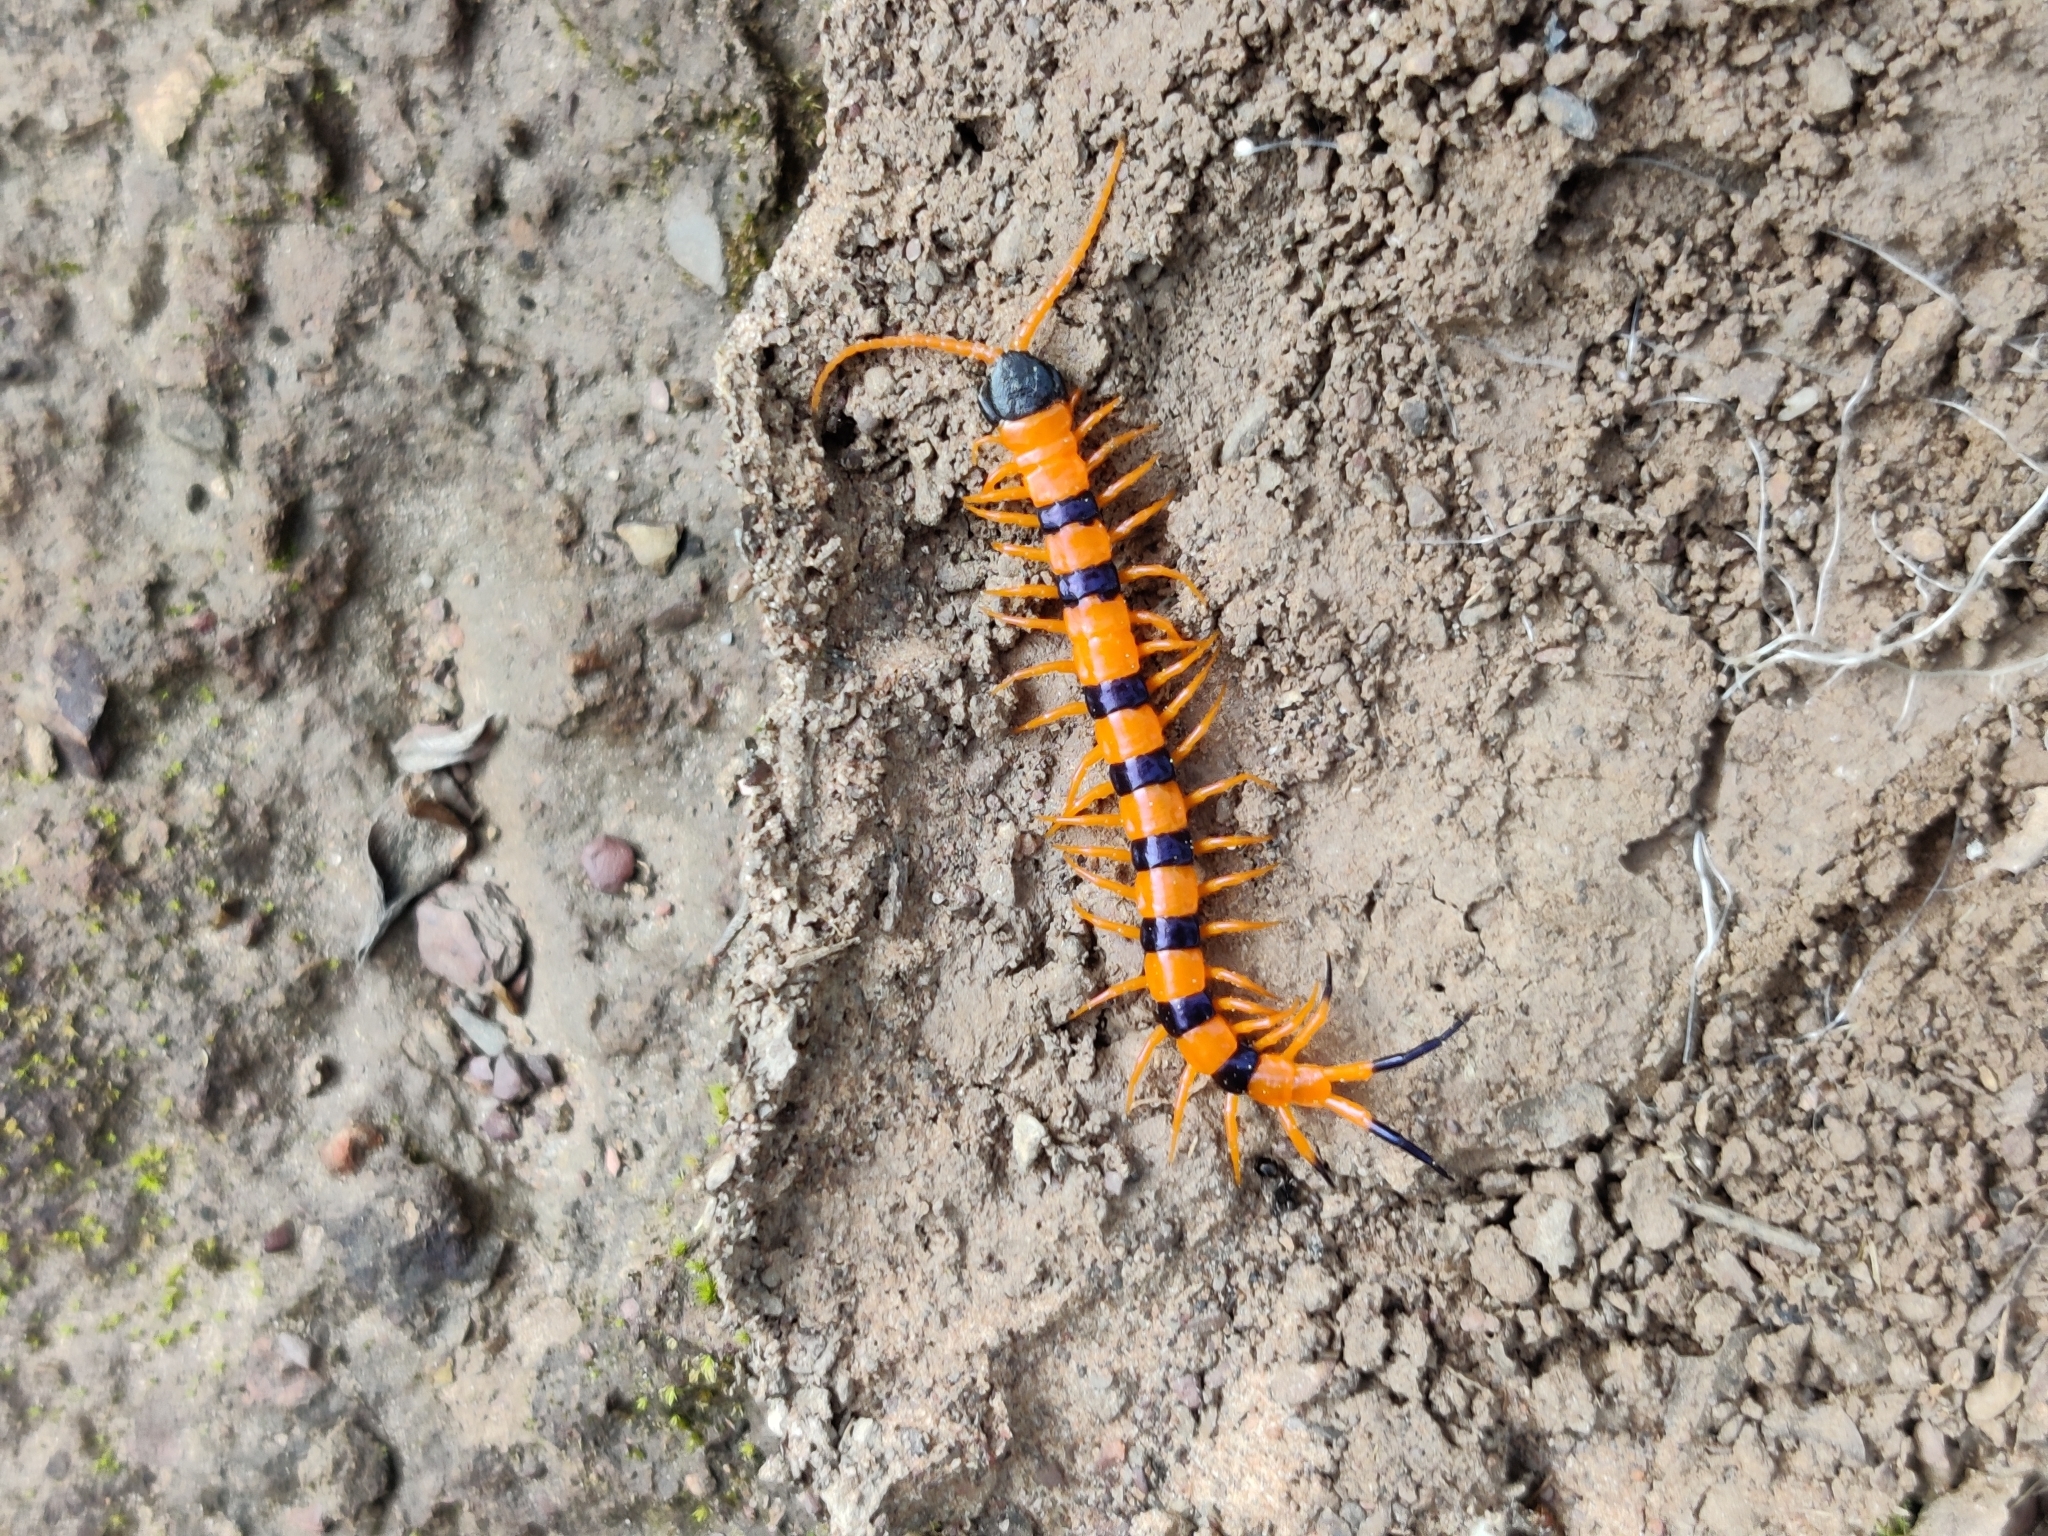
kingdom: Animalia
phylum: Arthropoda
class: Chilopoda
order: Scolopendromorpha
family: Scolopendridae
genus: Scolopendra
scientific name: Scolopendra hardwickei
